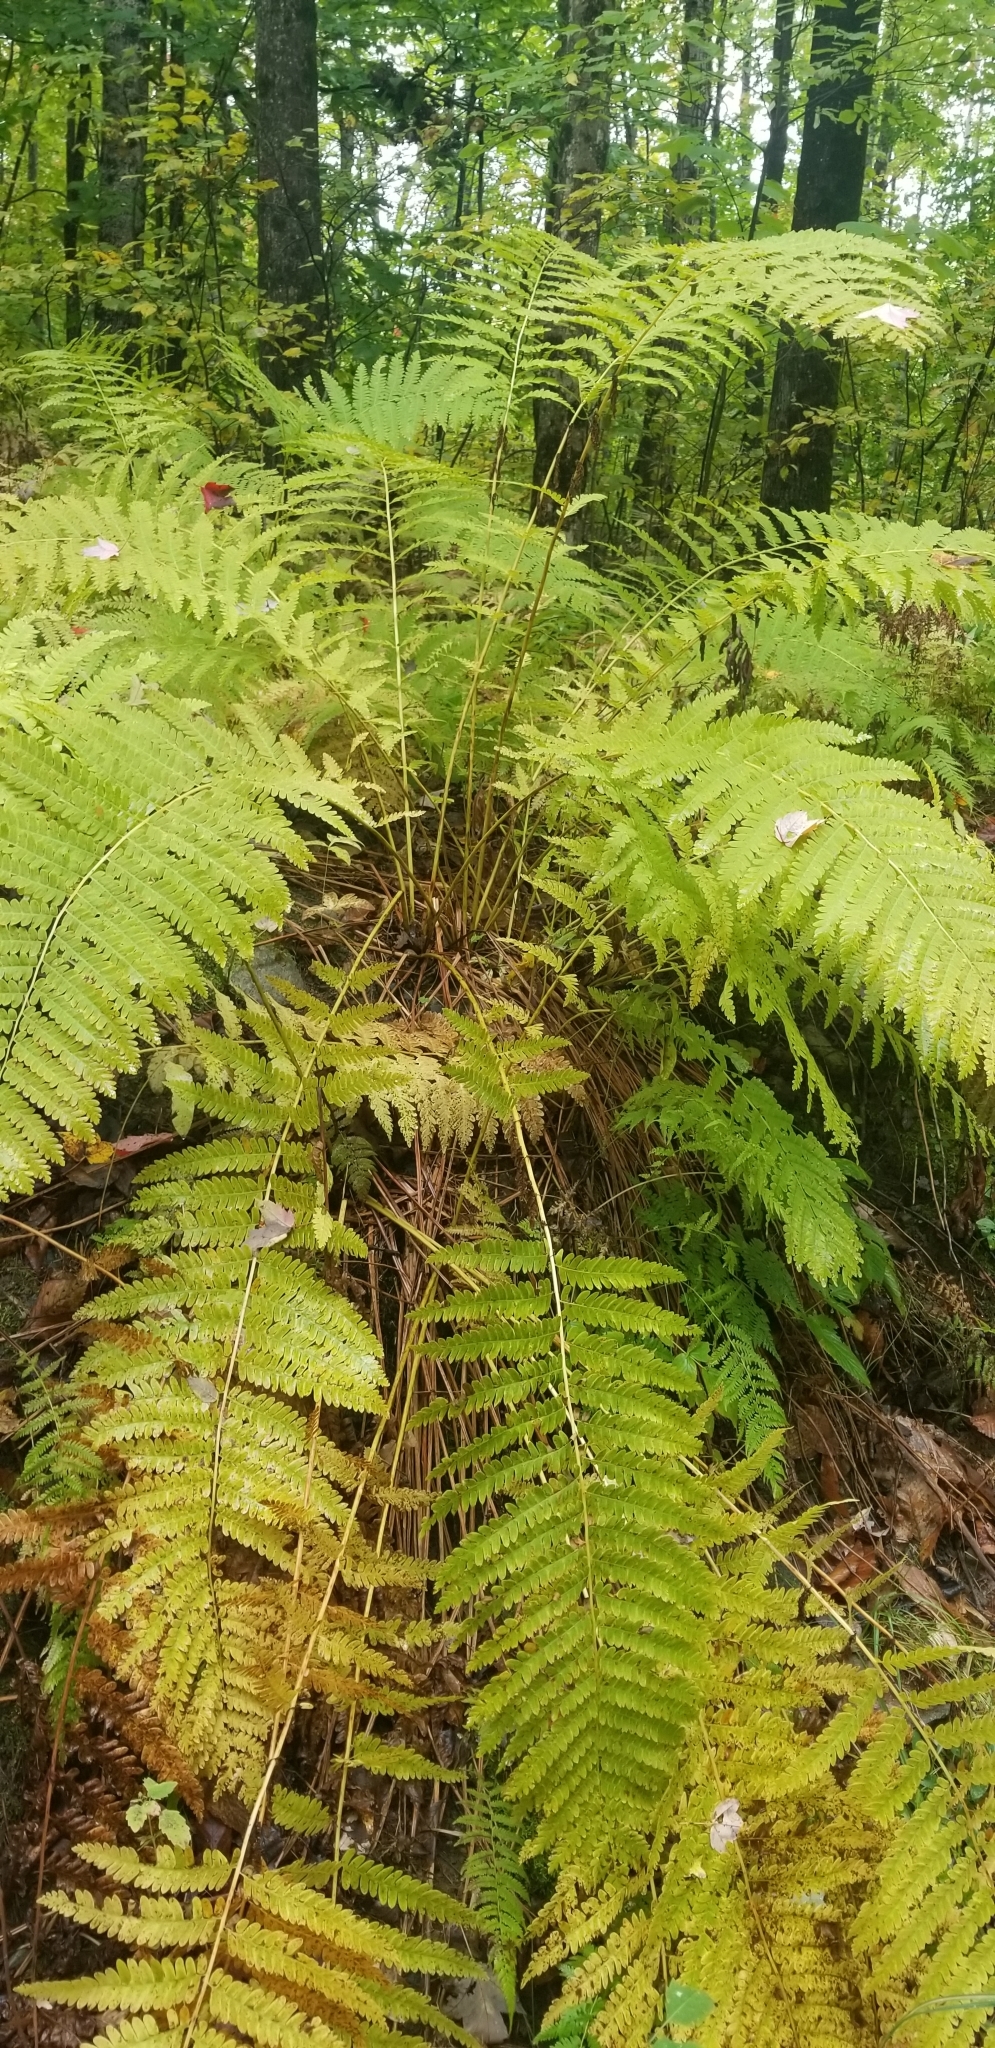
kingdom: Plantae
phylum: Tracheophyta
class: Polypodiopsida
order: Osmundales
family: Osmundaceae
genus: Claytosmunda
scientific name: Claytosmunda claytoniana
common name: Clayton's fern
